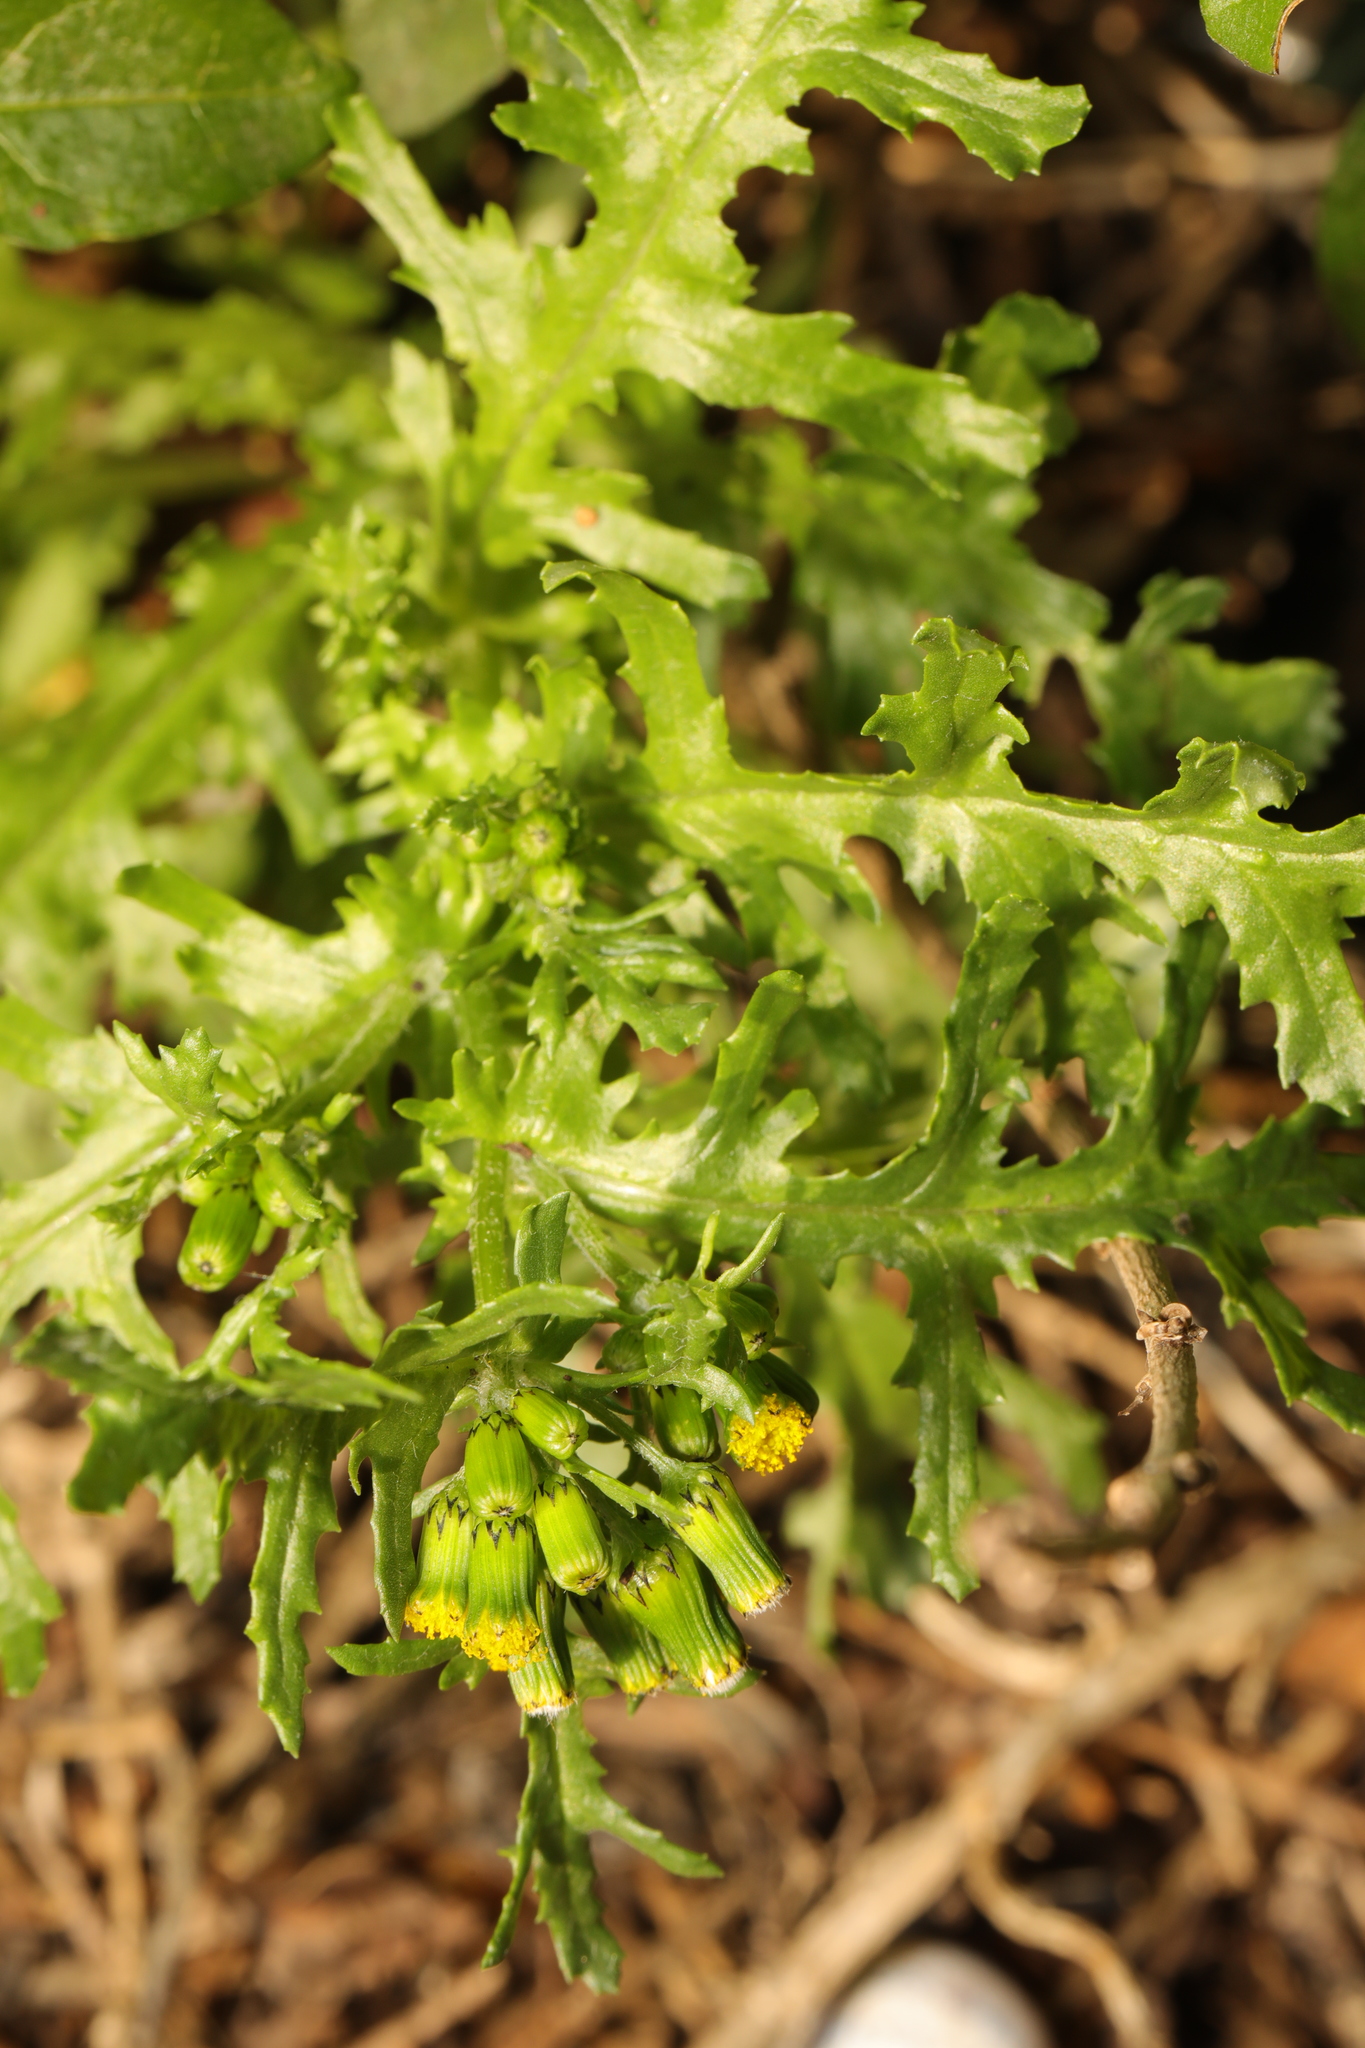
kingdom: Plantae
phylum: Tracheophyta
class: Magnoliopsida
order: Asterales
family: Asteraceae
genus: Senecio
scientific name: Senecio vulgaris
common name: Old-man-in-the-spring
